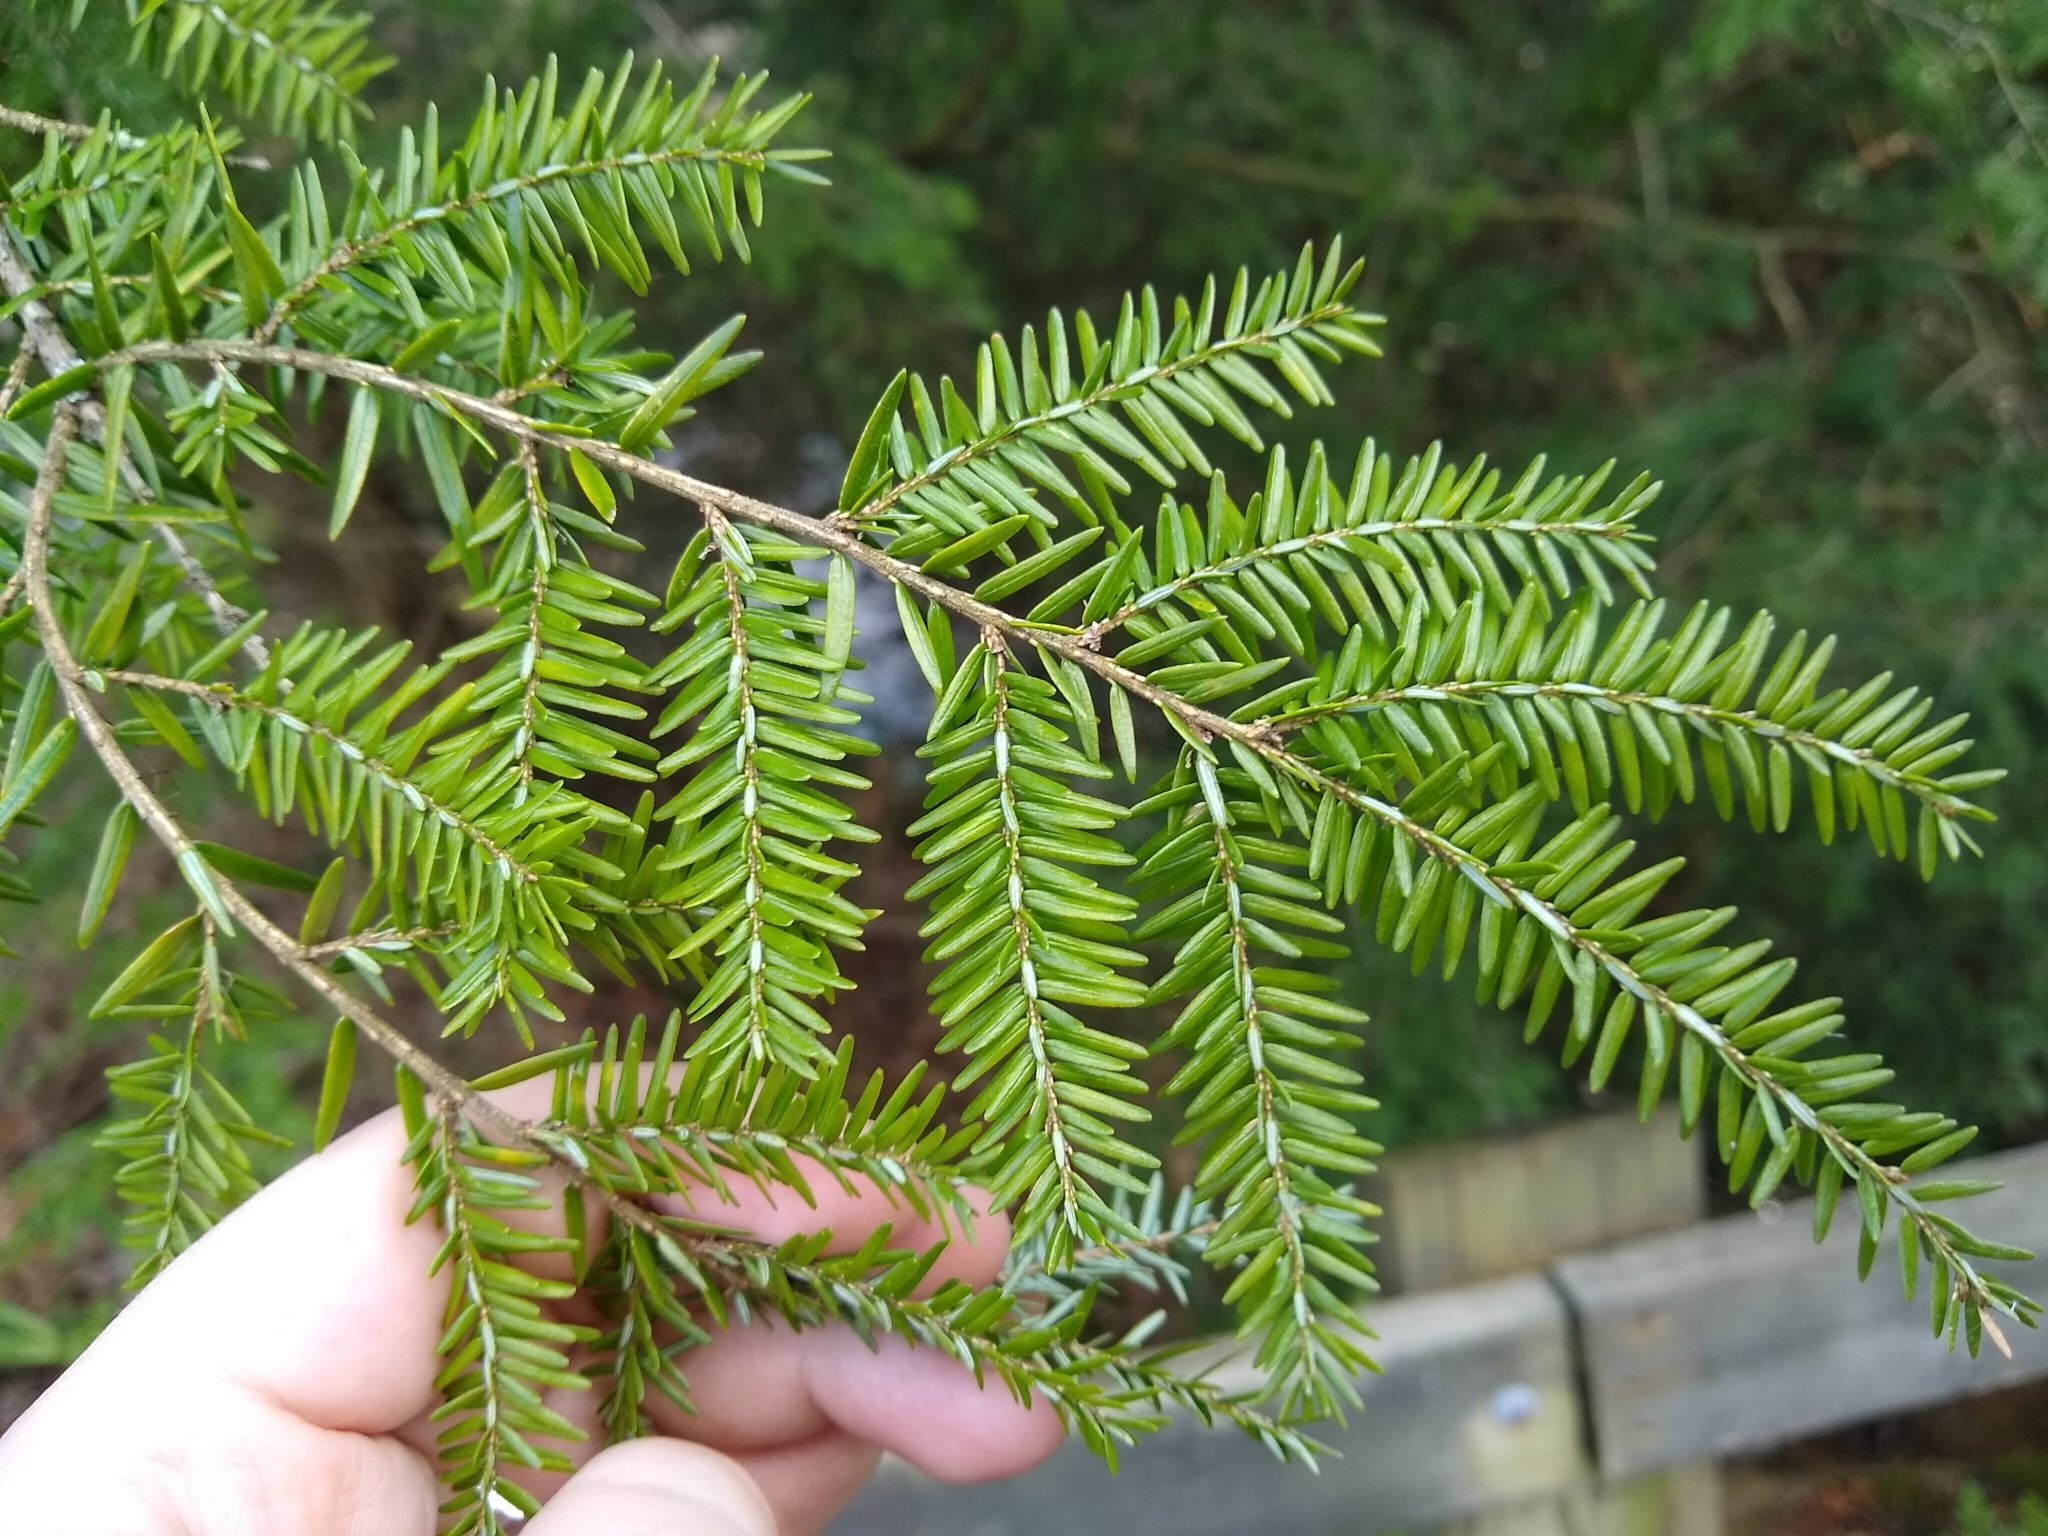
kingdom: Plantae
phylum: Tracheophyta
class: Pinopsida
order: Pinales
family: Pinaceae
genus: Tsuga
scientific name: Tsuga canadensis
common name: Eastern hemlock
